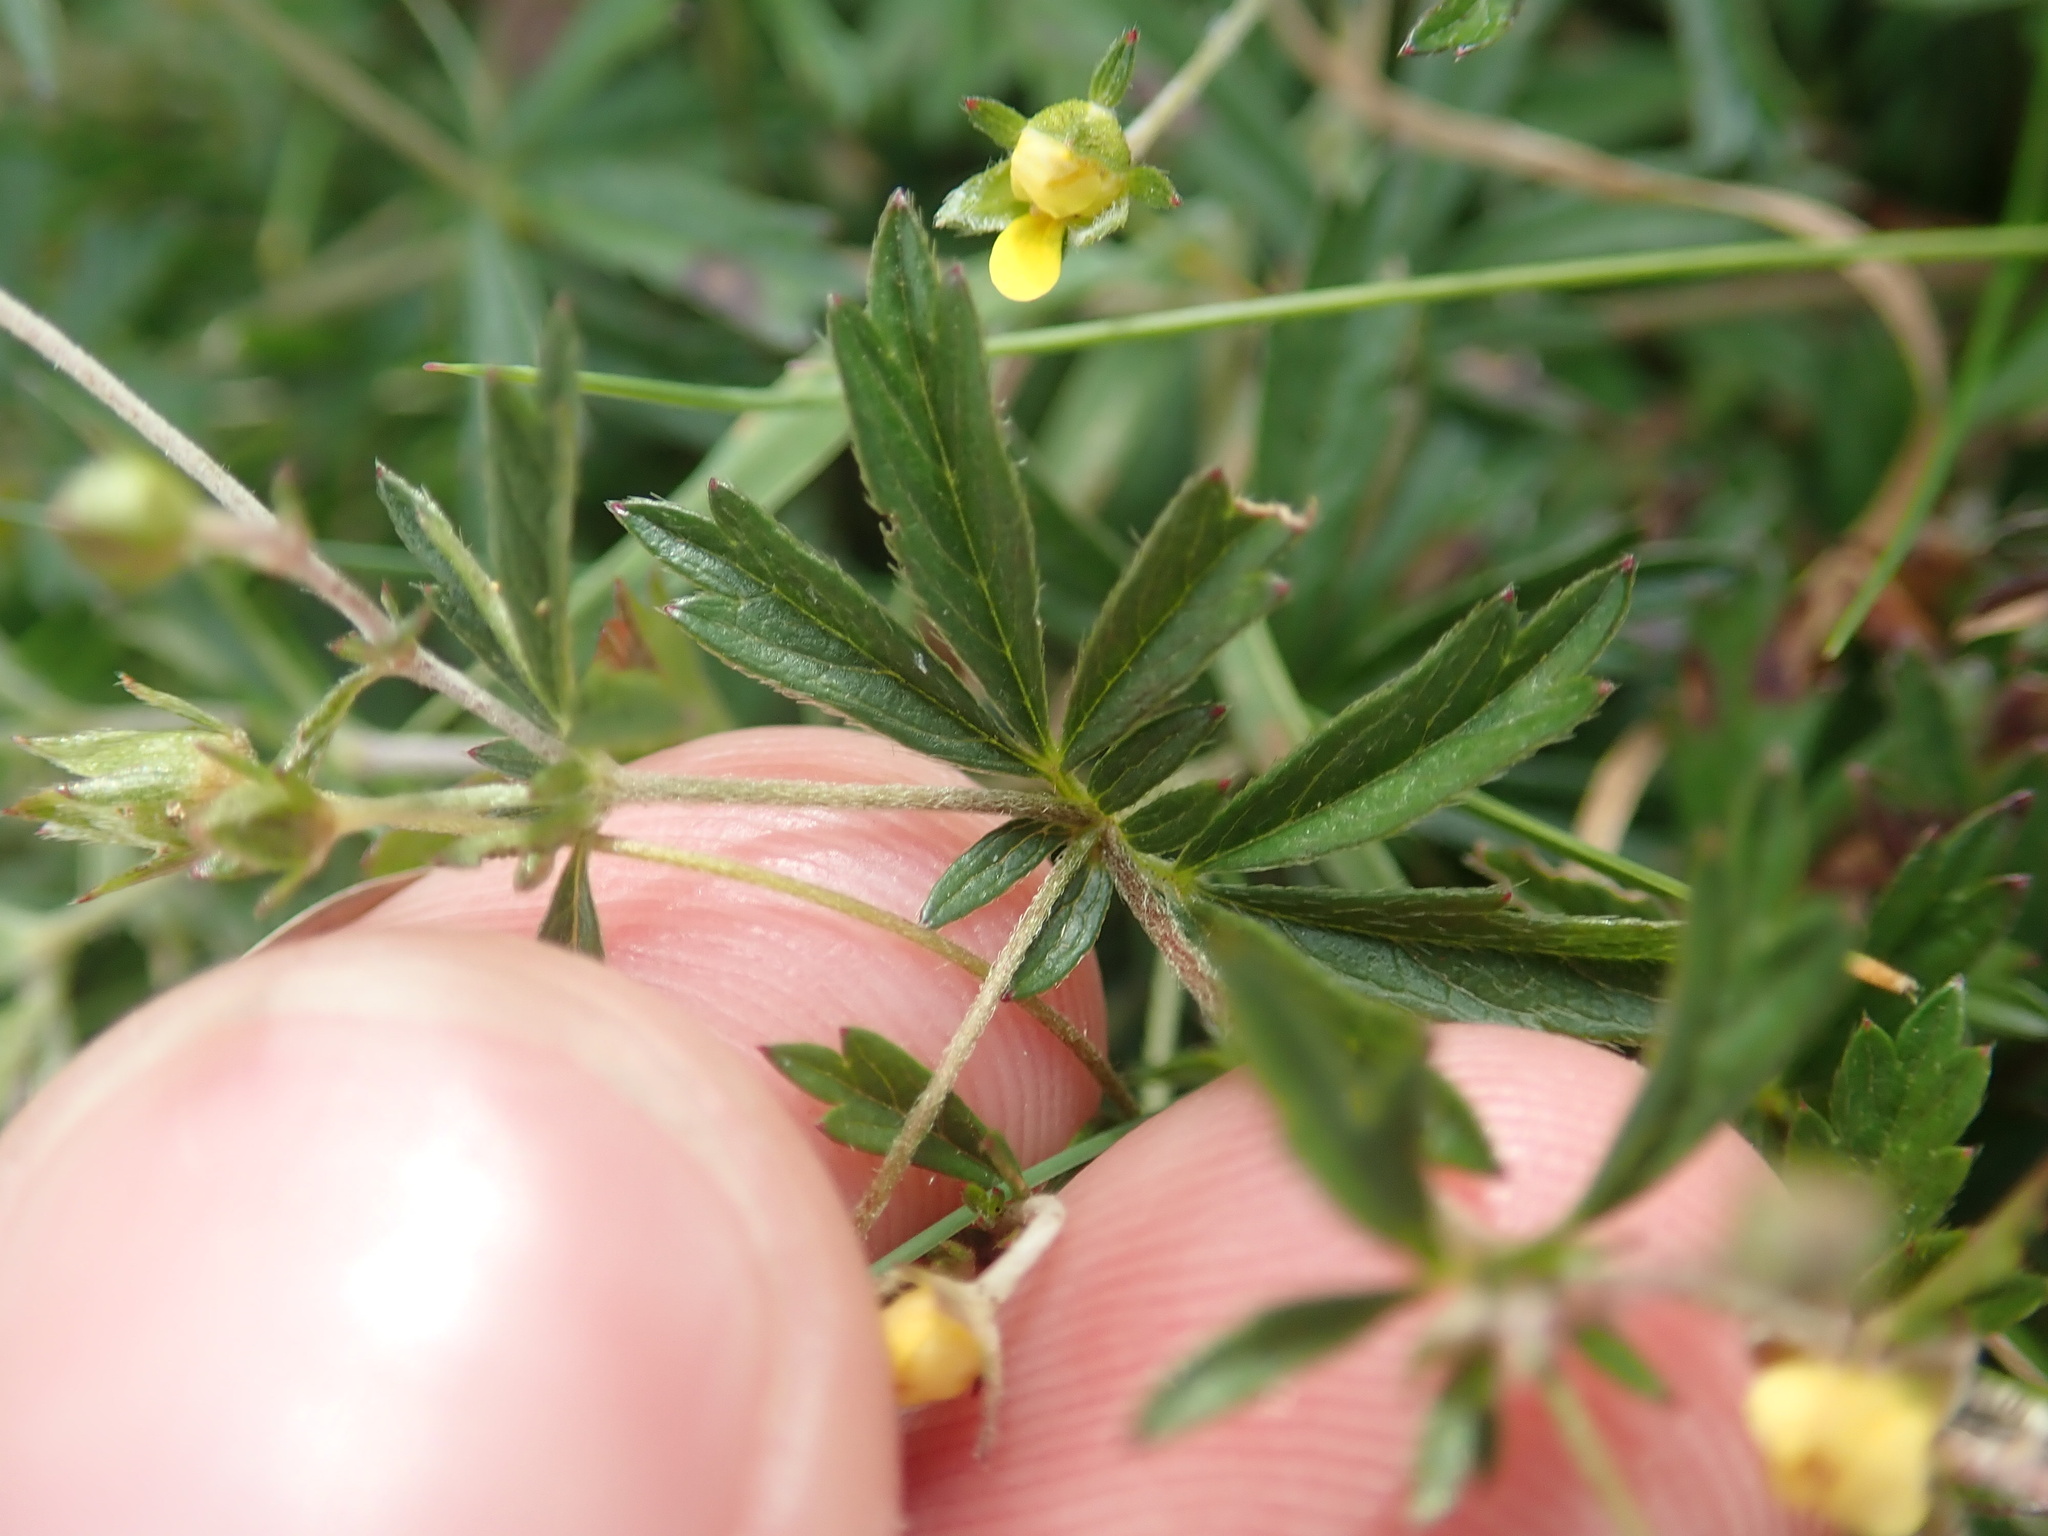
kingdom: Plantae
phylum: Tracheophyta
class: Magnoliopsida
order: Rosales
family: Rosaceae
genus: Potentilla
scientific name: Potentilla erecta
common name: Tormentil
